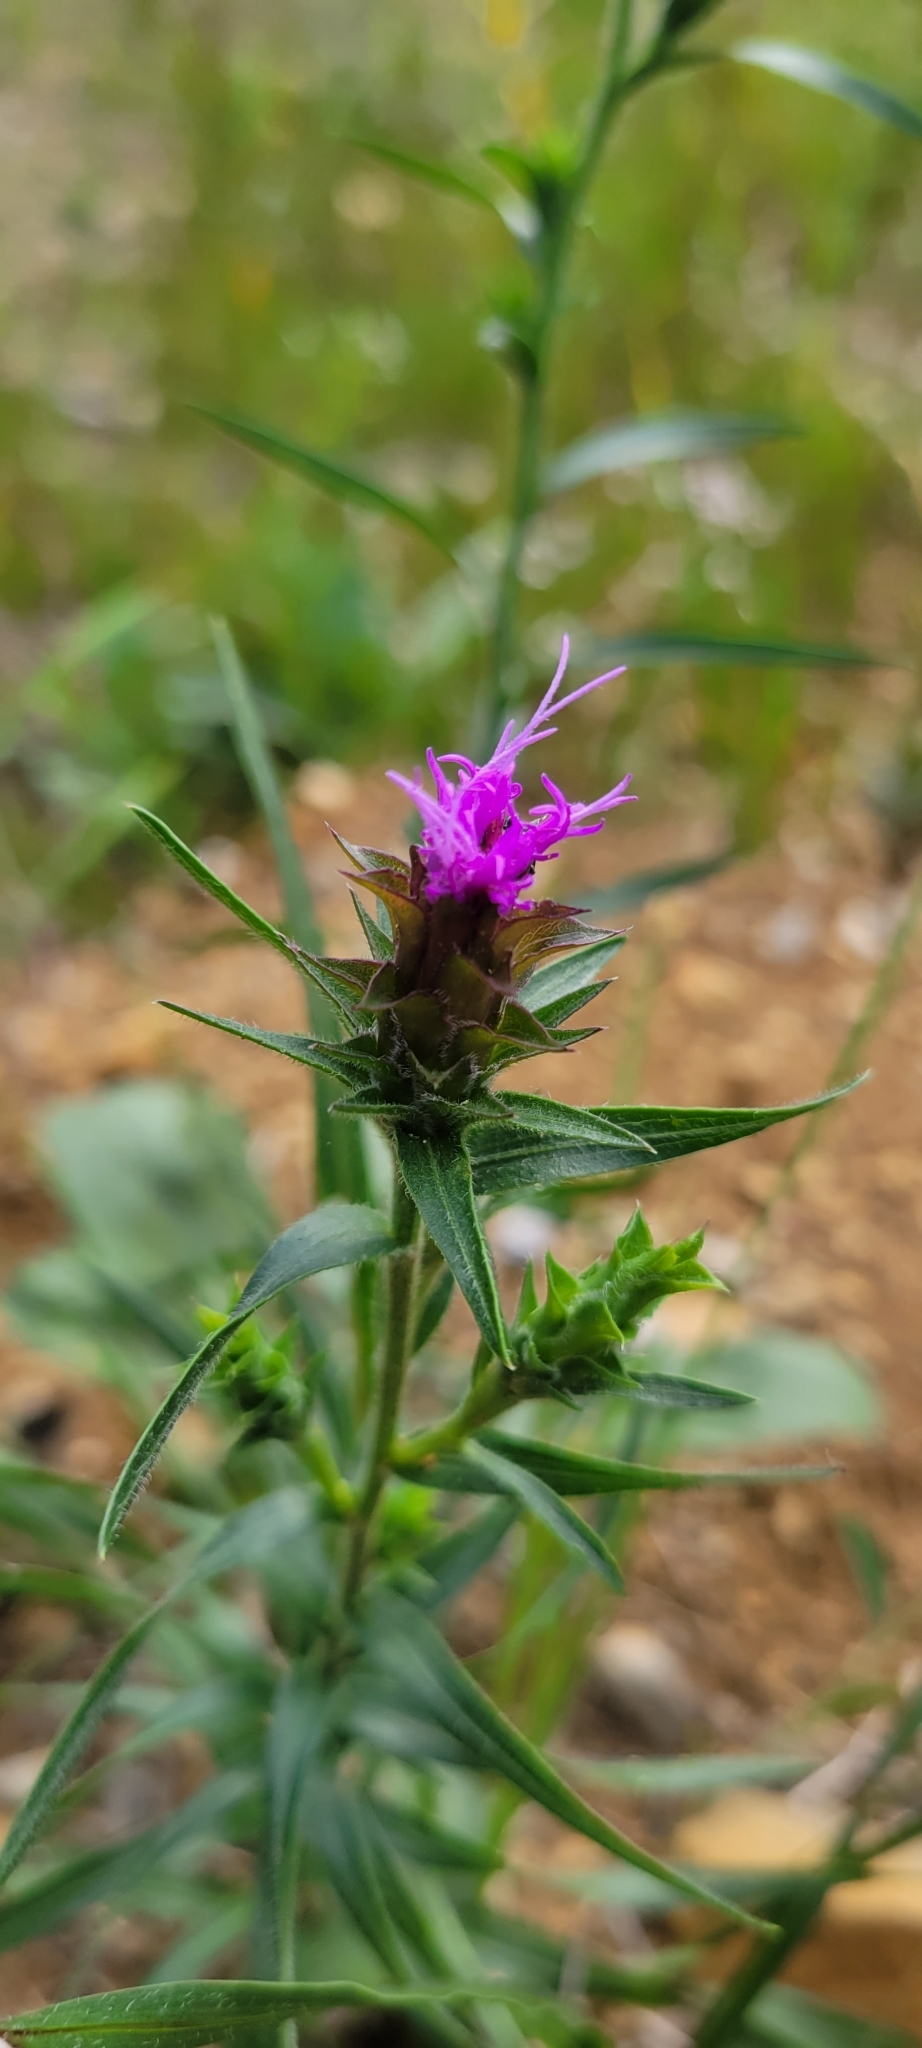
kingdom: Plantae
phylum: Tracheophyta
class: Magnoliopsida
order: Asterales
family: Asteraceae
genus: Liatris
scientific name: Liatris squarrosa
